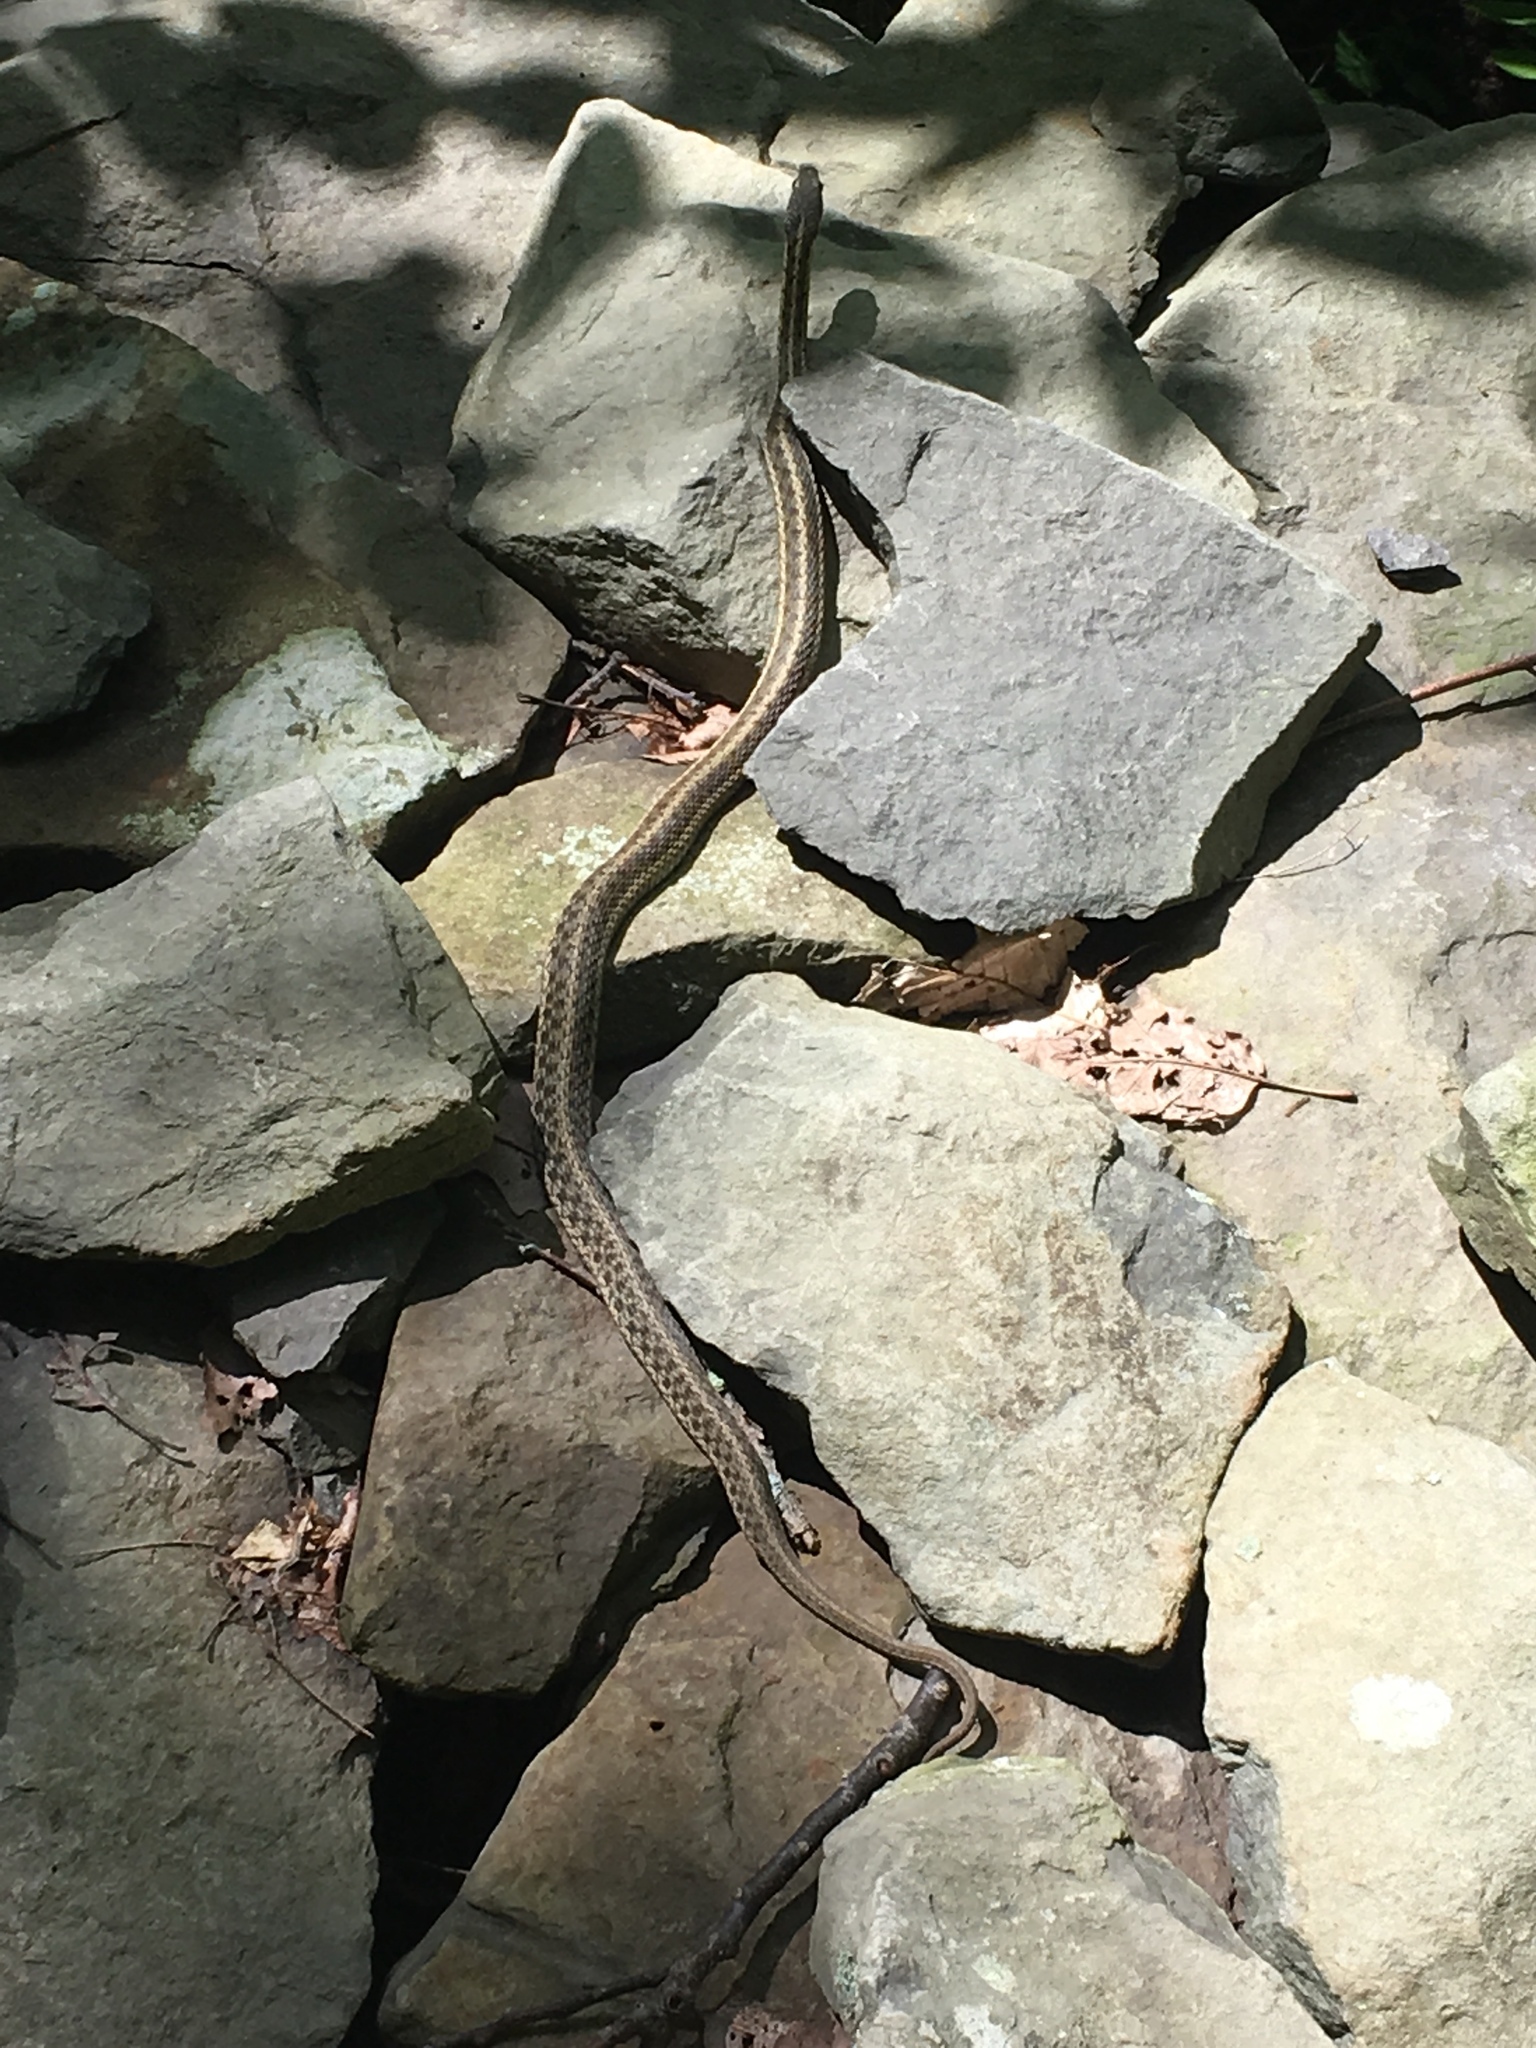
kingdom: Animalia
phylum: Chordata
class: Squamata
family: Colubridae
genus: Thamnophis
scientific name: Thamnophis sirtalis
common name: Common garter snake
